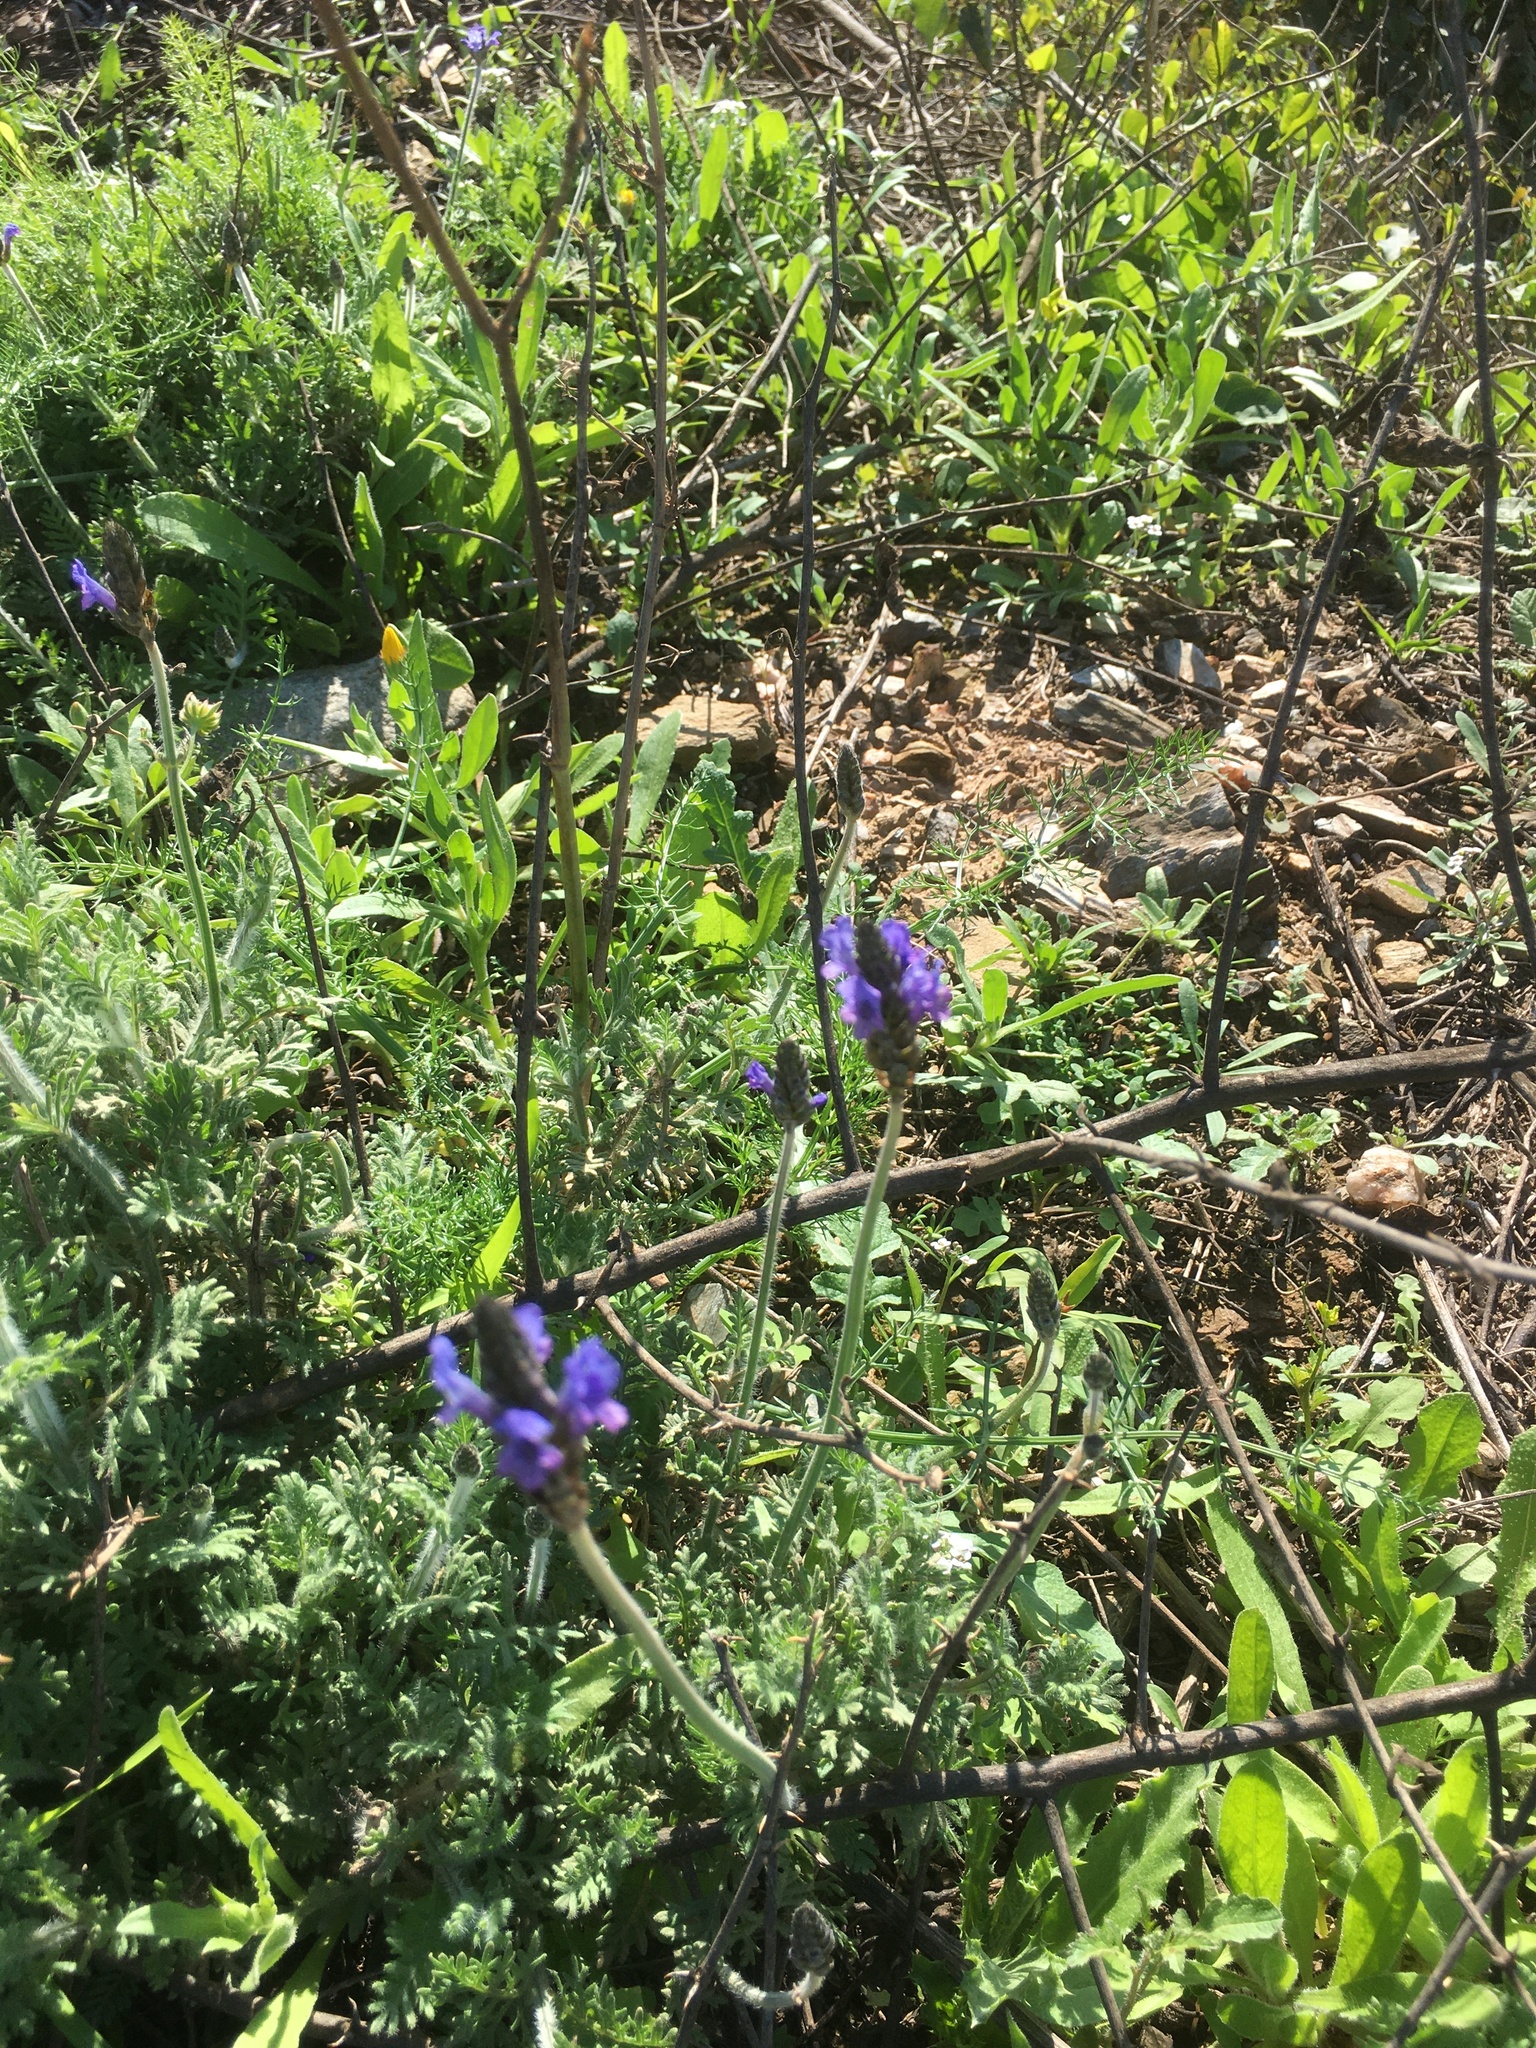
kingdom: Plantae
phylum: Tracheophyta
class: Magnoliopsida
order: Lamiales
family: Lamiaceae
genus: Lavandula
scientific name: Lavandula multifida
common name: Fern-leaf lavender
